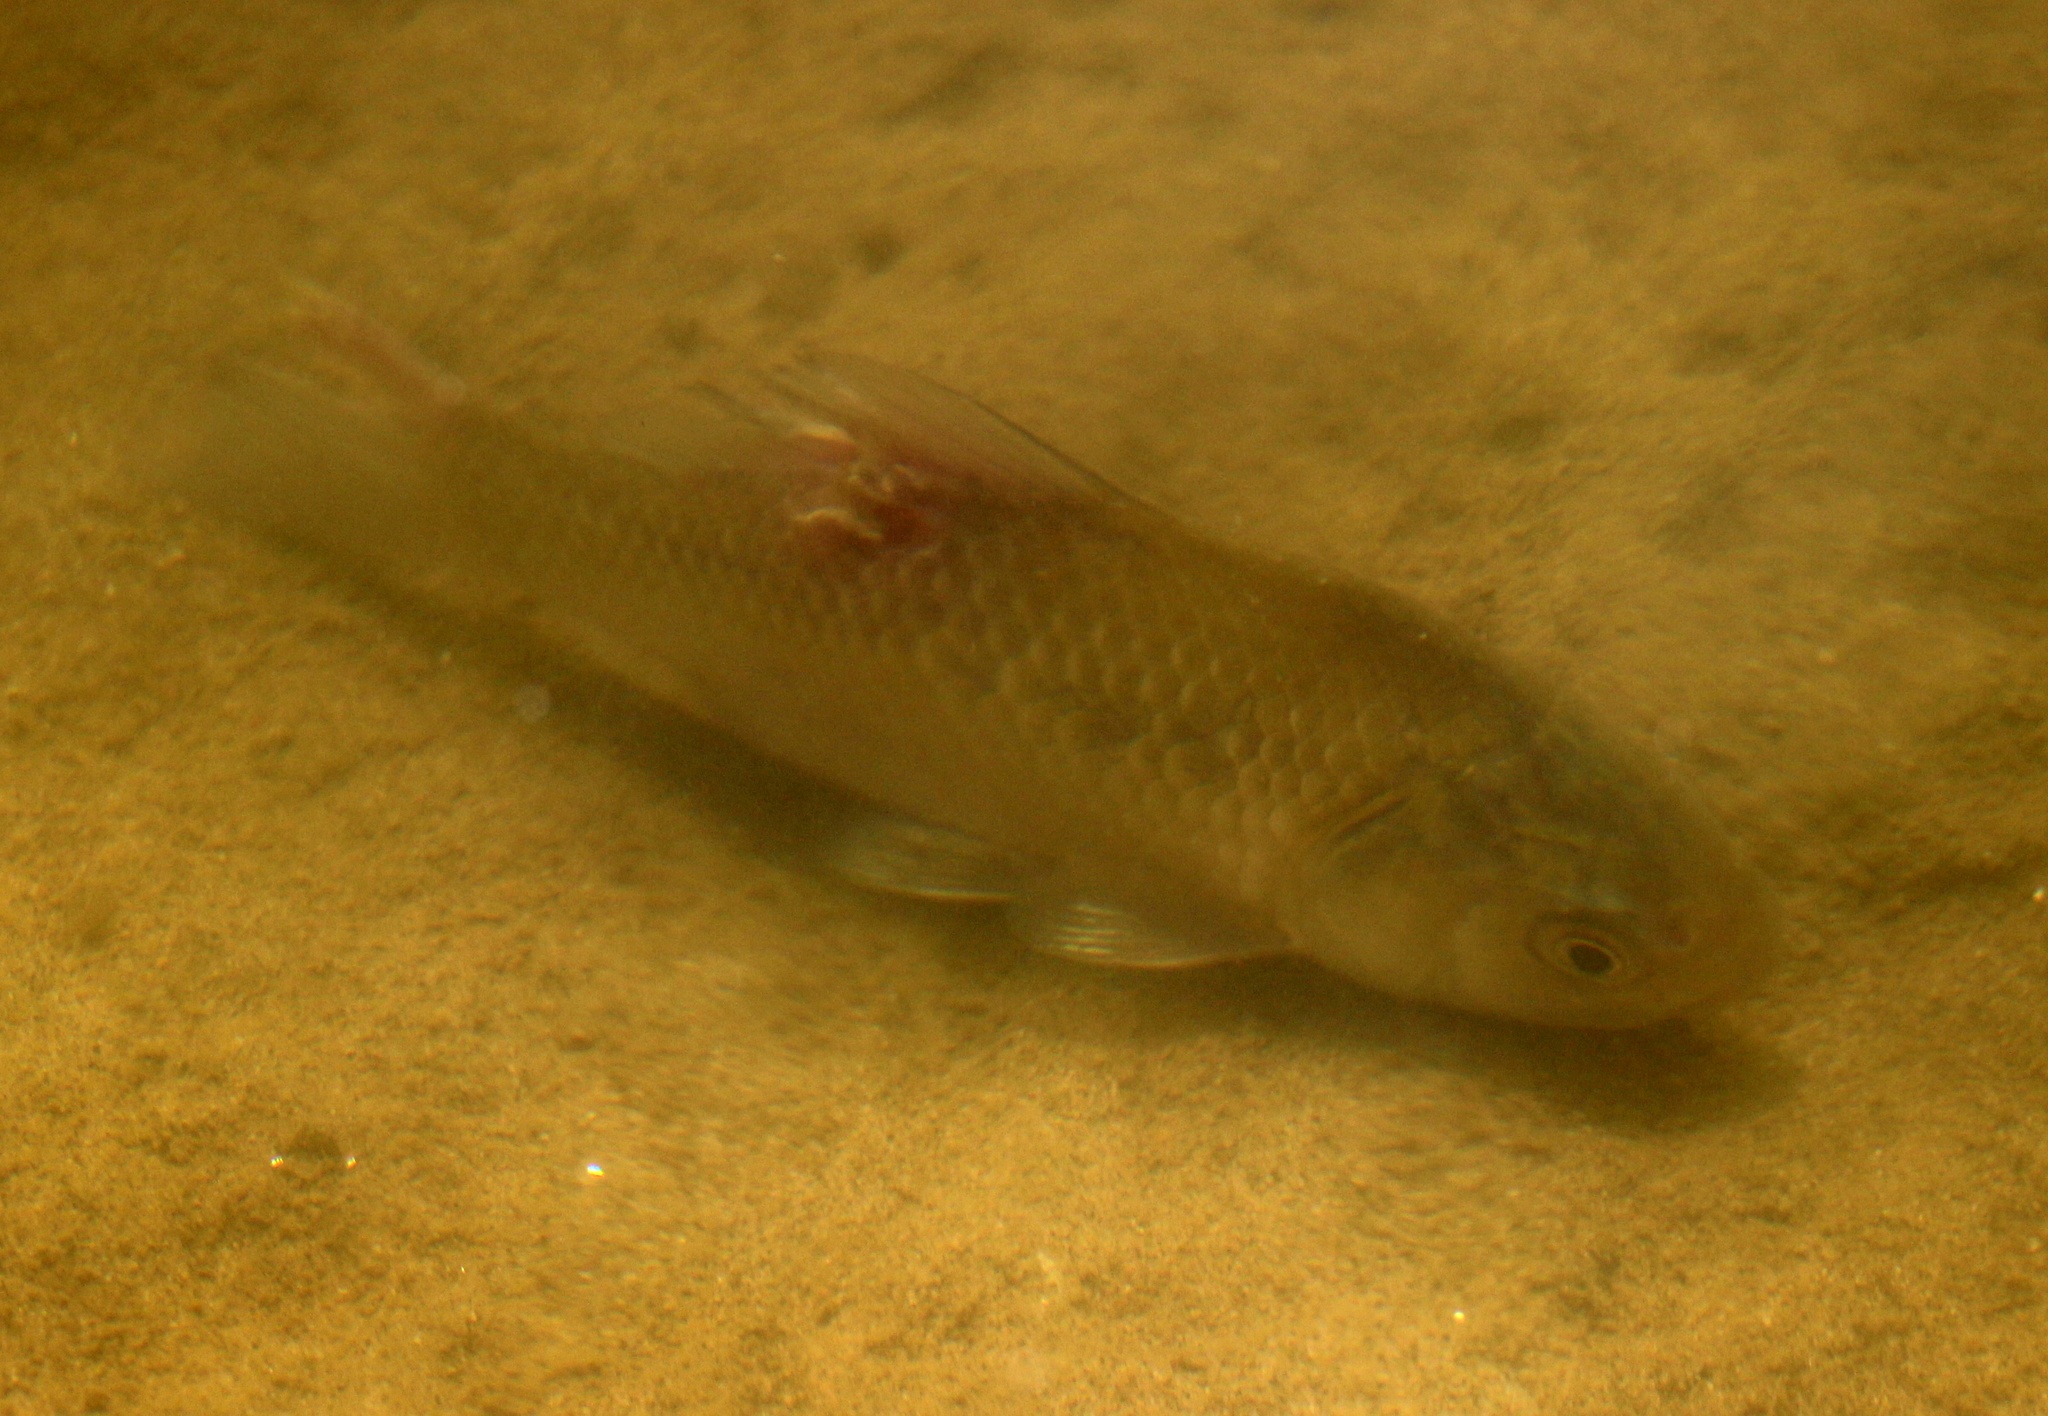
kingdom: Animalia
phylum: Chordata
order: Cypriniformes
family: Cyprinidae
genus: Carassius
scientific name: Carassius gibelio
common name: Prussian carp
